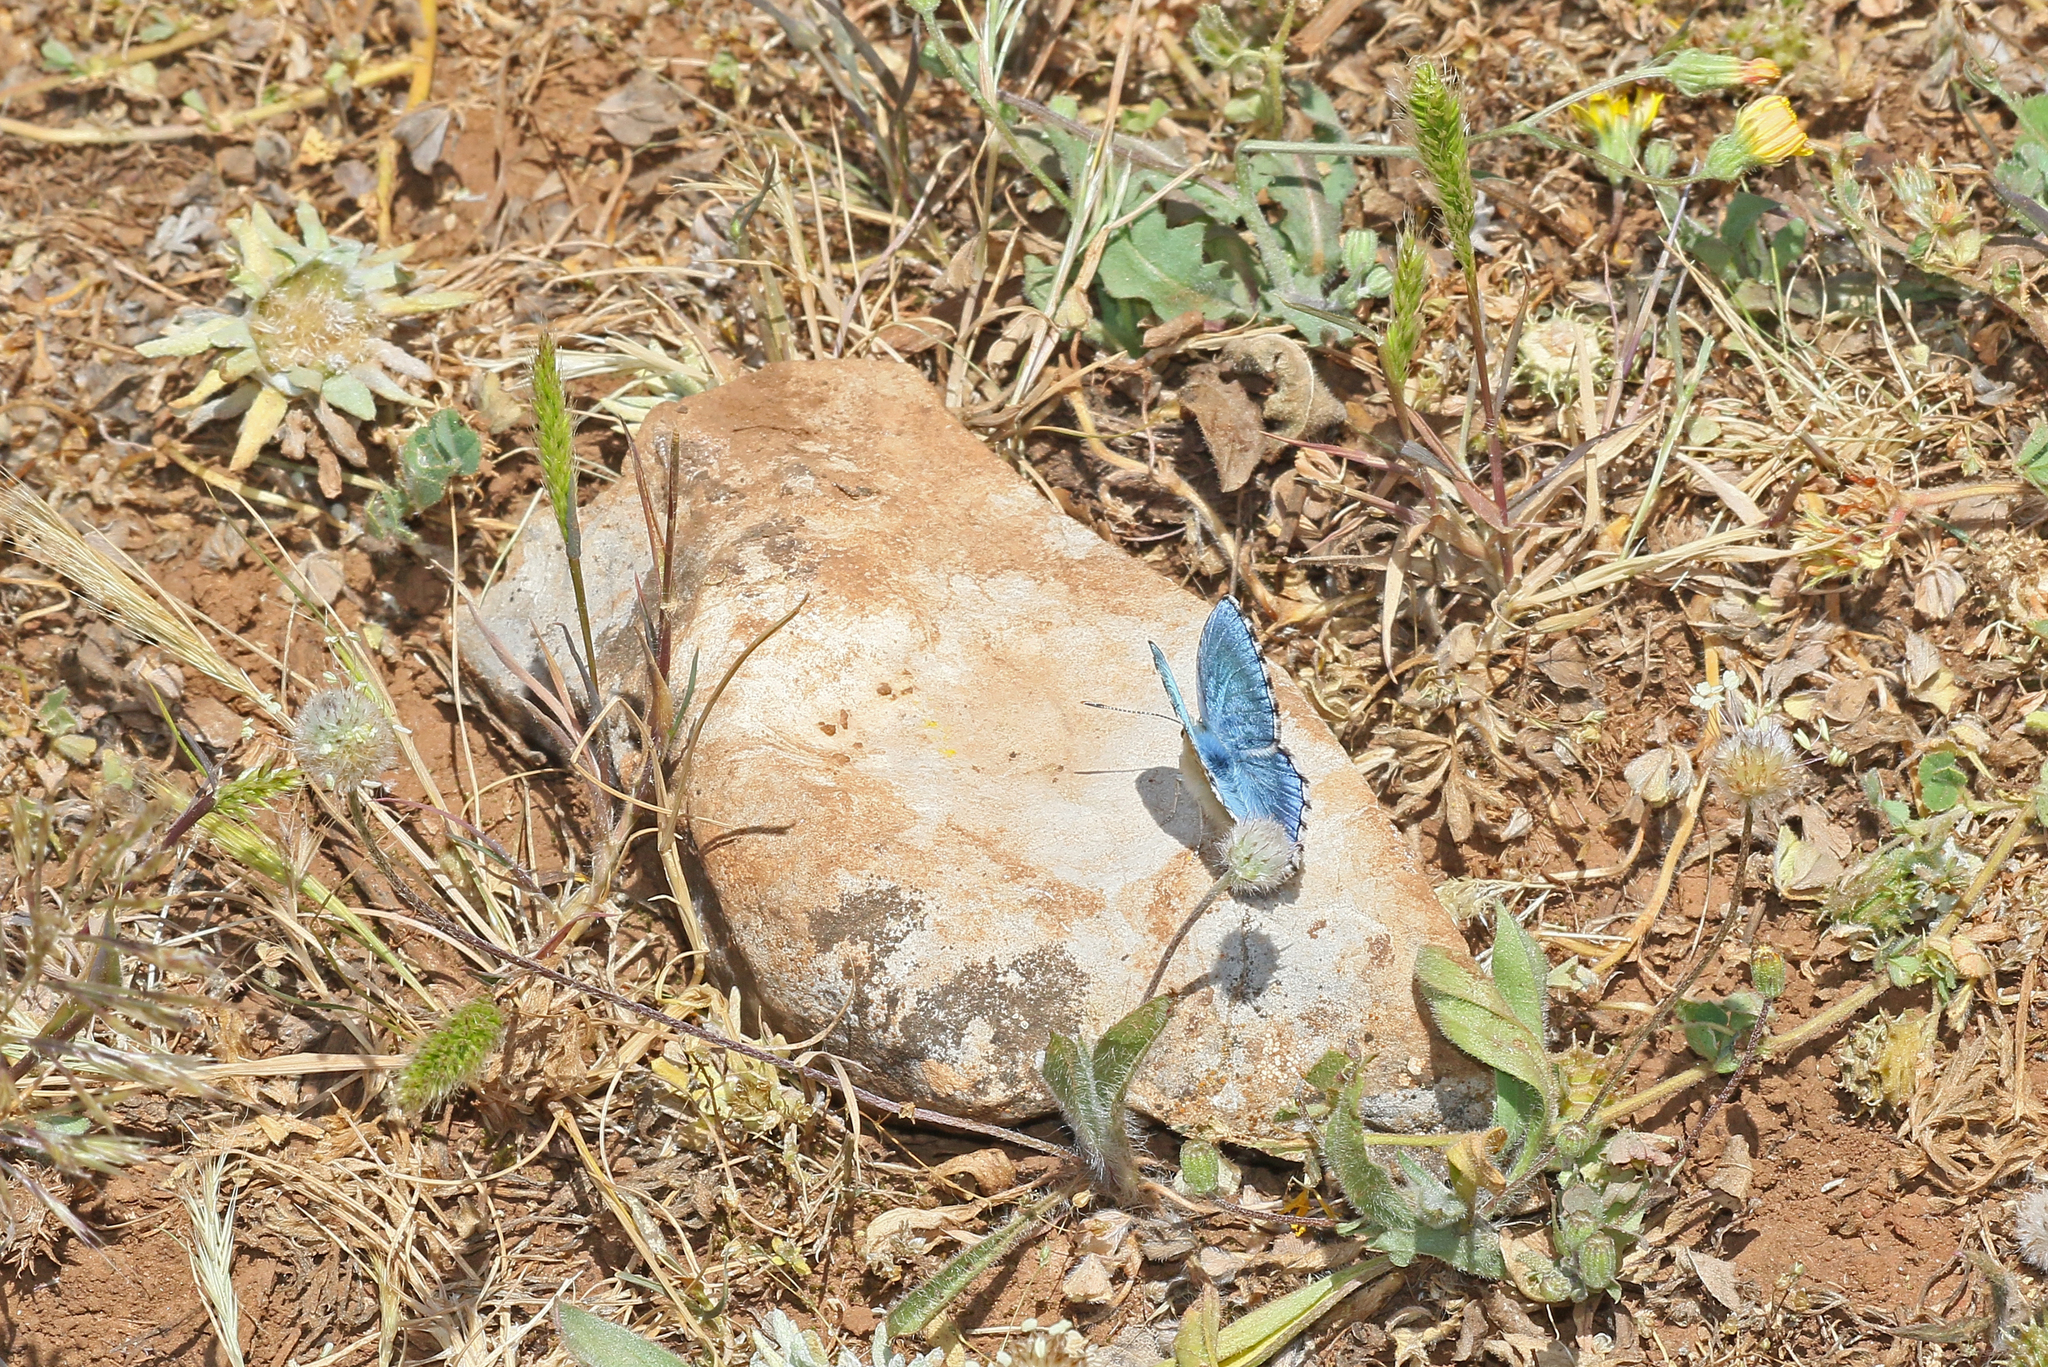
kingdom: Animalia
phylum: Arthropoda
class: Insecta
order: Lepidoptera
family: Lycaenidae
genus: Lysandra
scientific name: Lysandra bellargus
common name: Adonis blue
